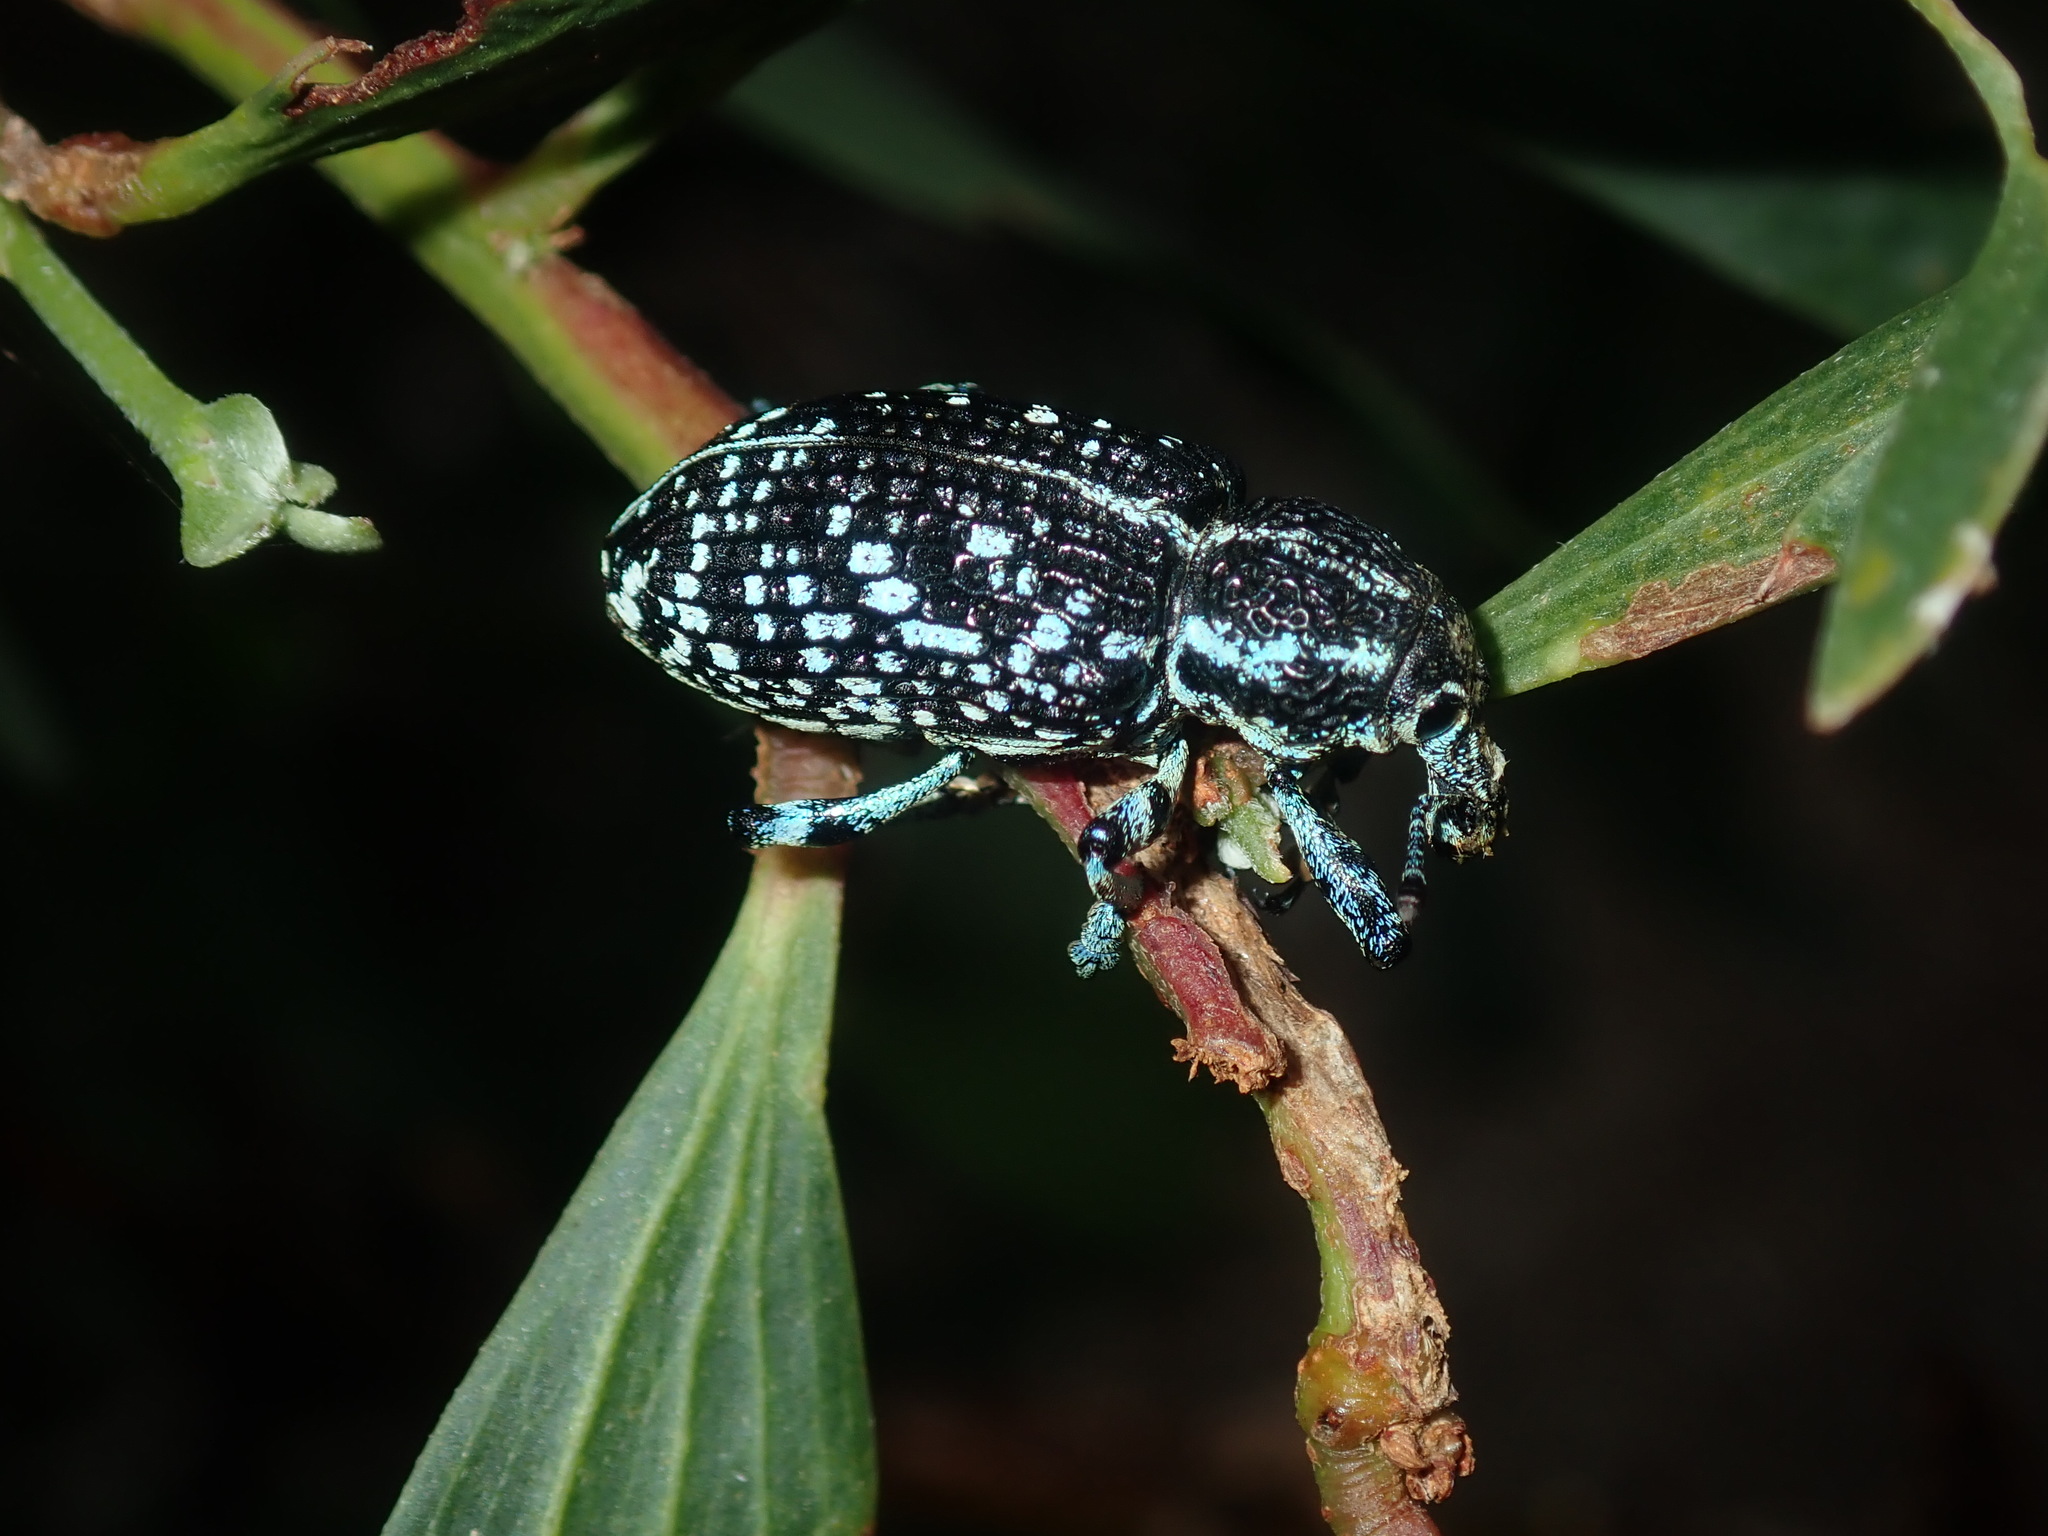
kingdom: Animalia
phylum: Arthropoda
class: Insecta
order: Coleoptera
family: Curculionidae
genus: Chrysolopus
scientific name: Chrysolopus spectabilis
